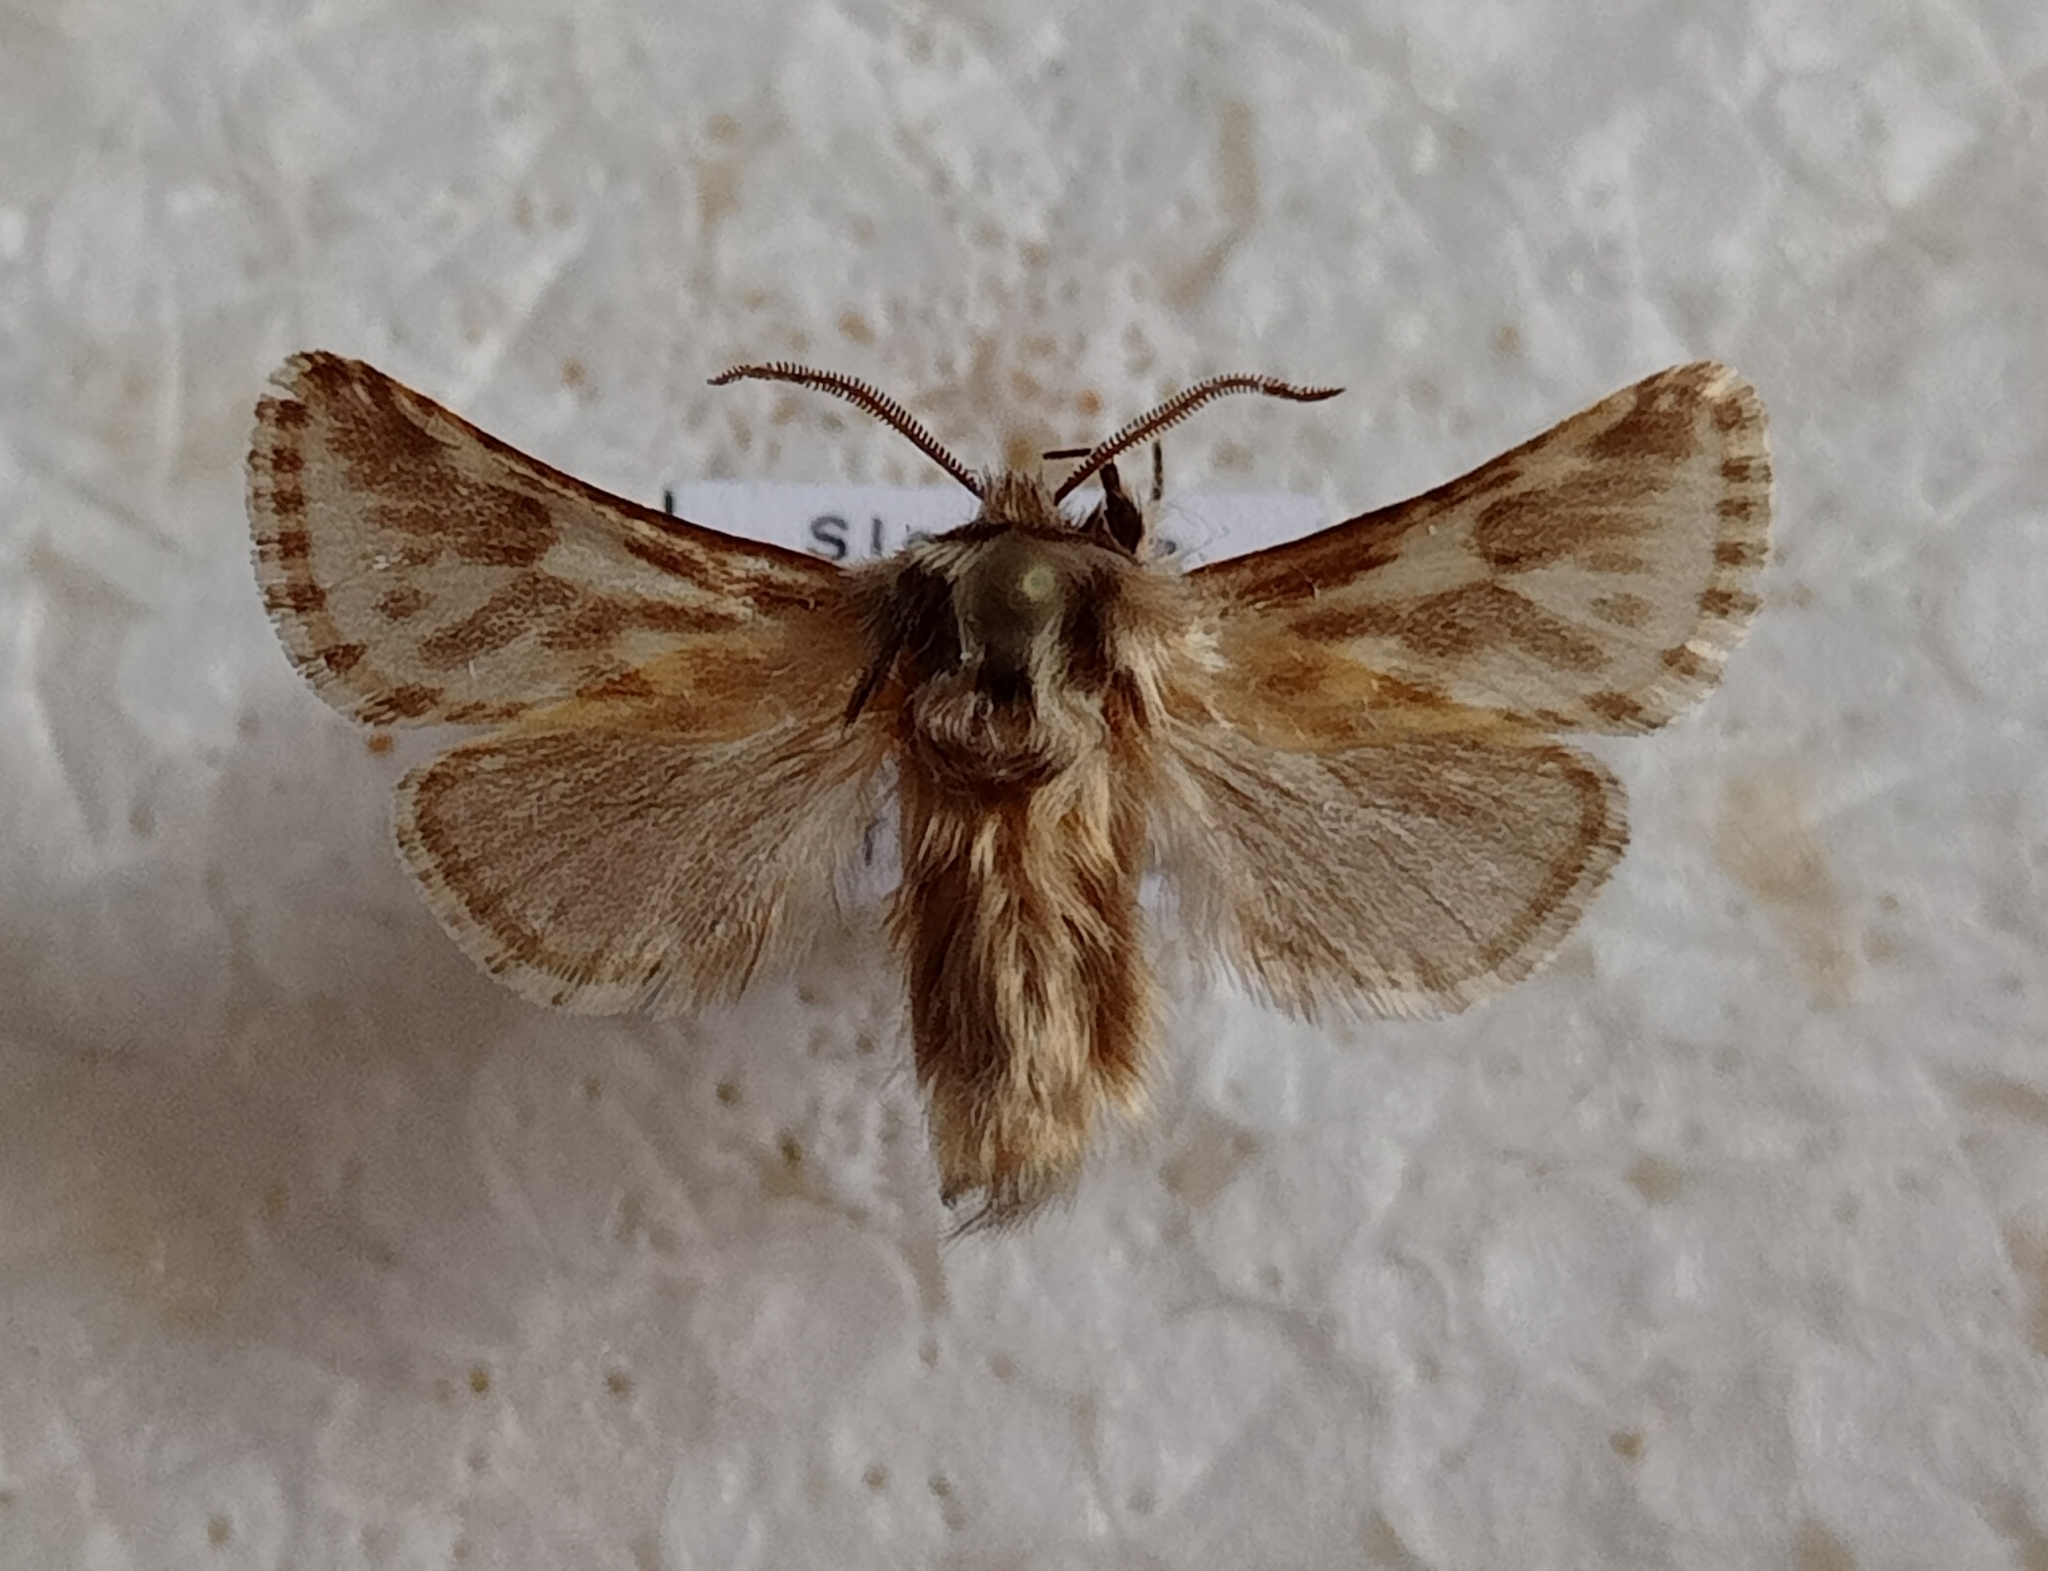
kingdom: Animalia
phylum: Arthropoda
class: Insecta
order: Lepidoptera
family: Cossidae
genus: Dyspessa
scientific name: Dyspessa ulula
